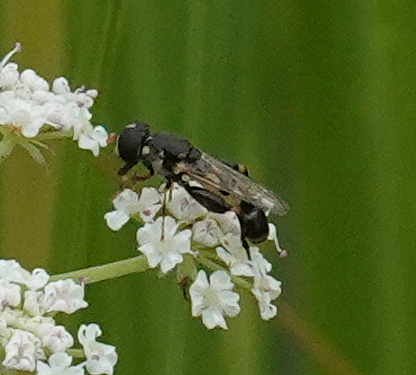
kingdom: Animalia
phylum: Arthropoda
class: Insecta
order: Diptera
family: Syrphidae
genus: Syritta
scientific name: Syritta pipiens
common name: Hover fly
